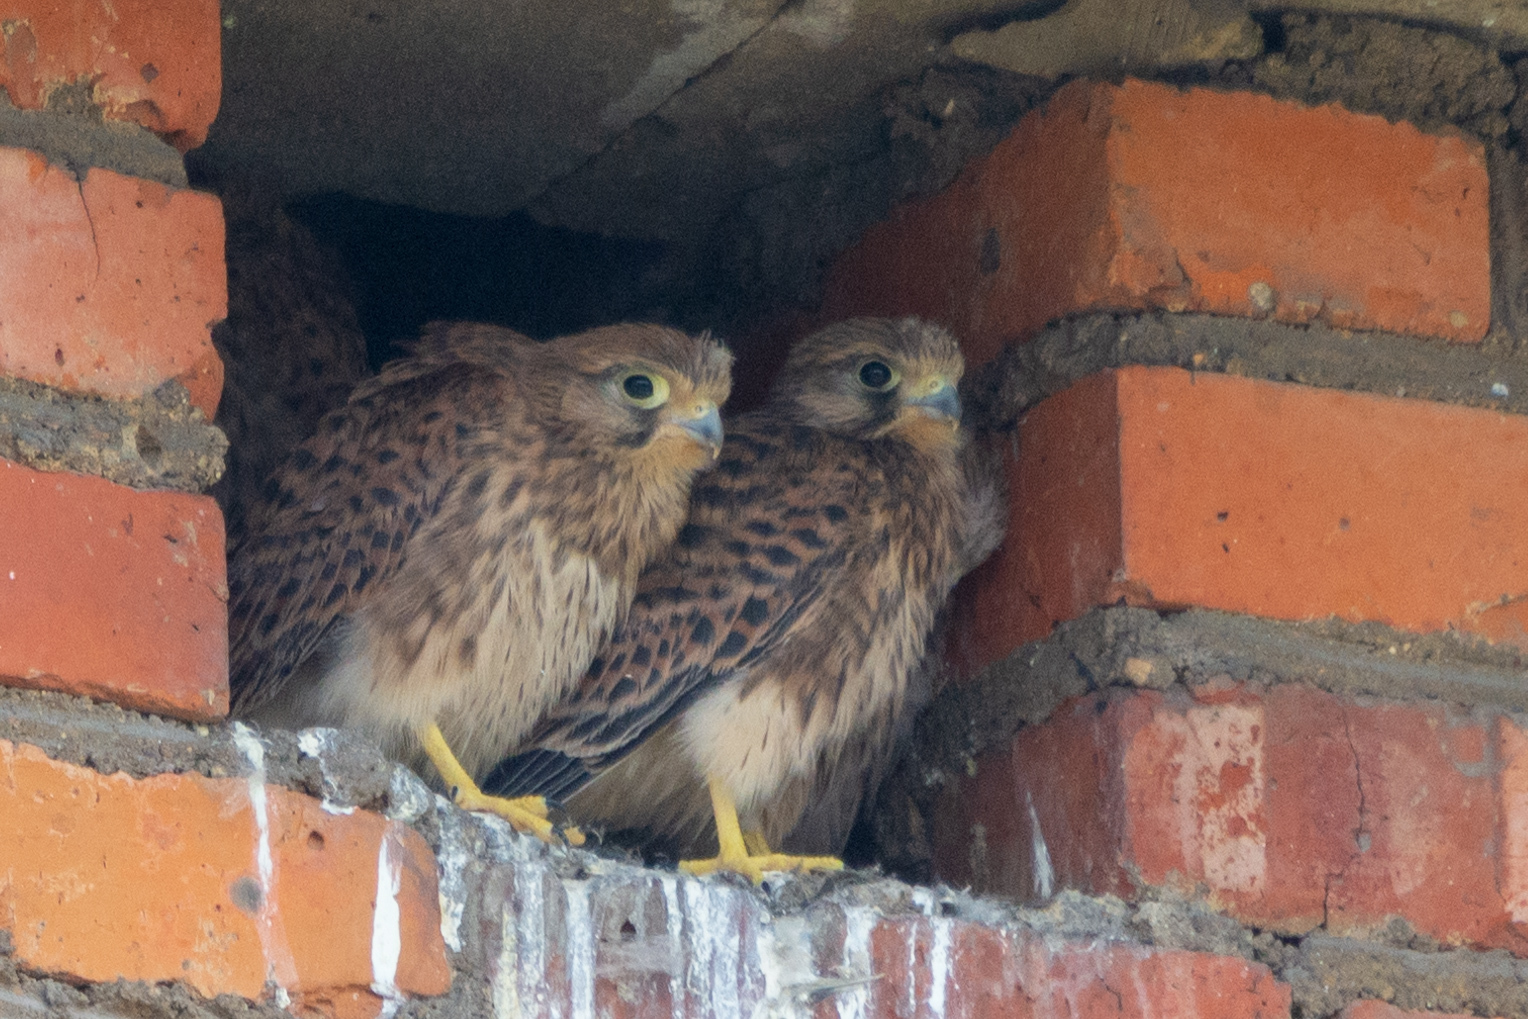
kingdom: Animalia
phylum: Chordata
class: Aves
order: Falconiformes
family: Falconidae
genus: Falco
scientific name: Falco tinnunculus
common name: Common kestrel
